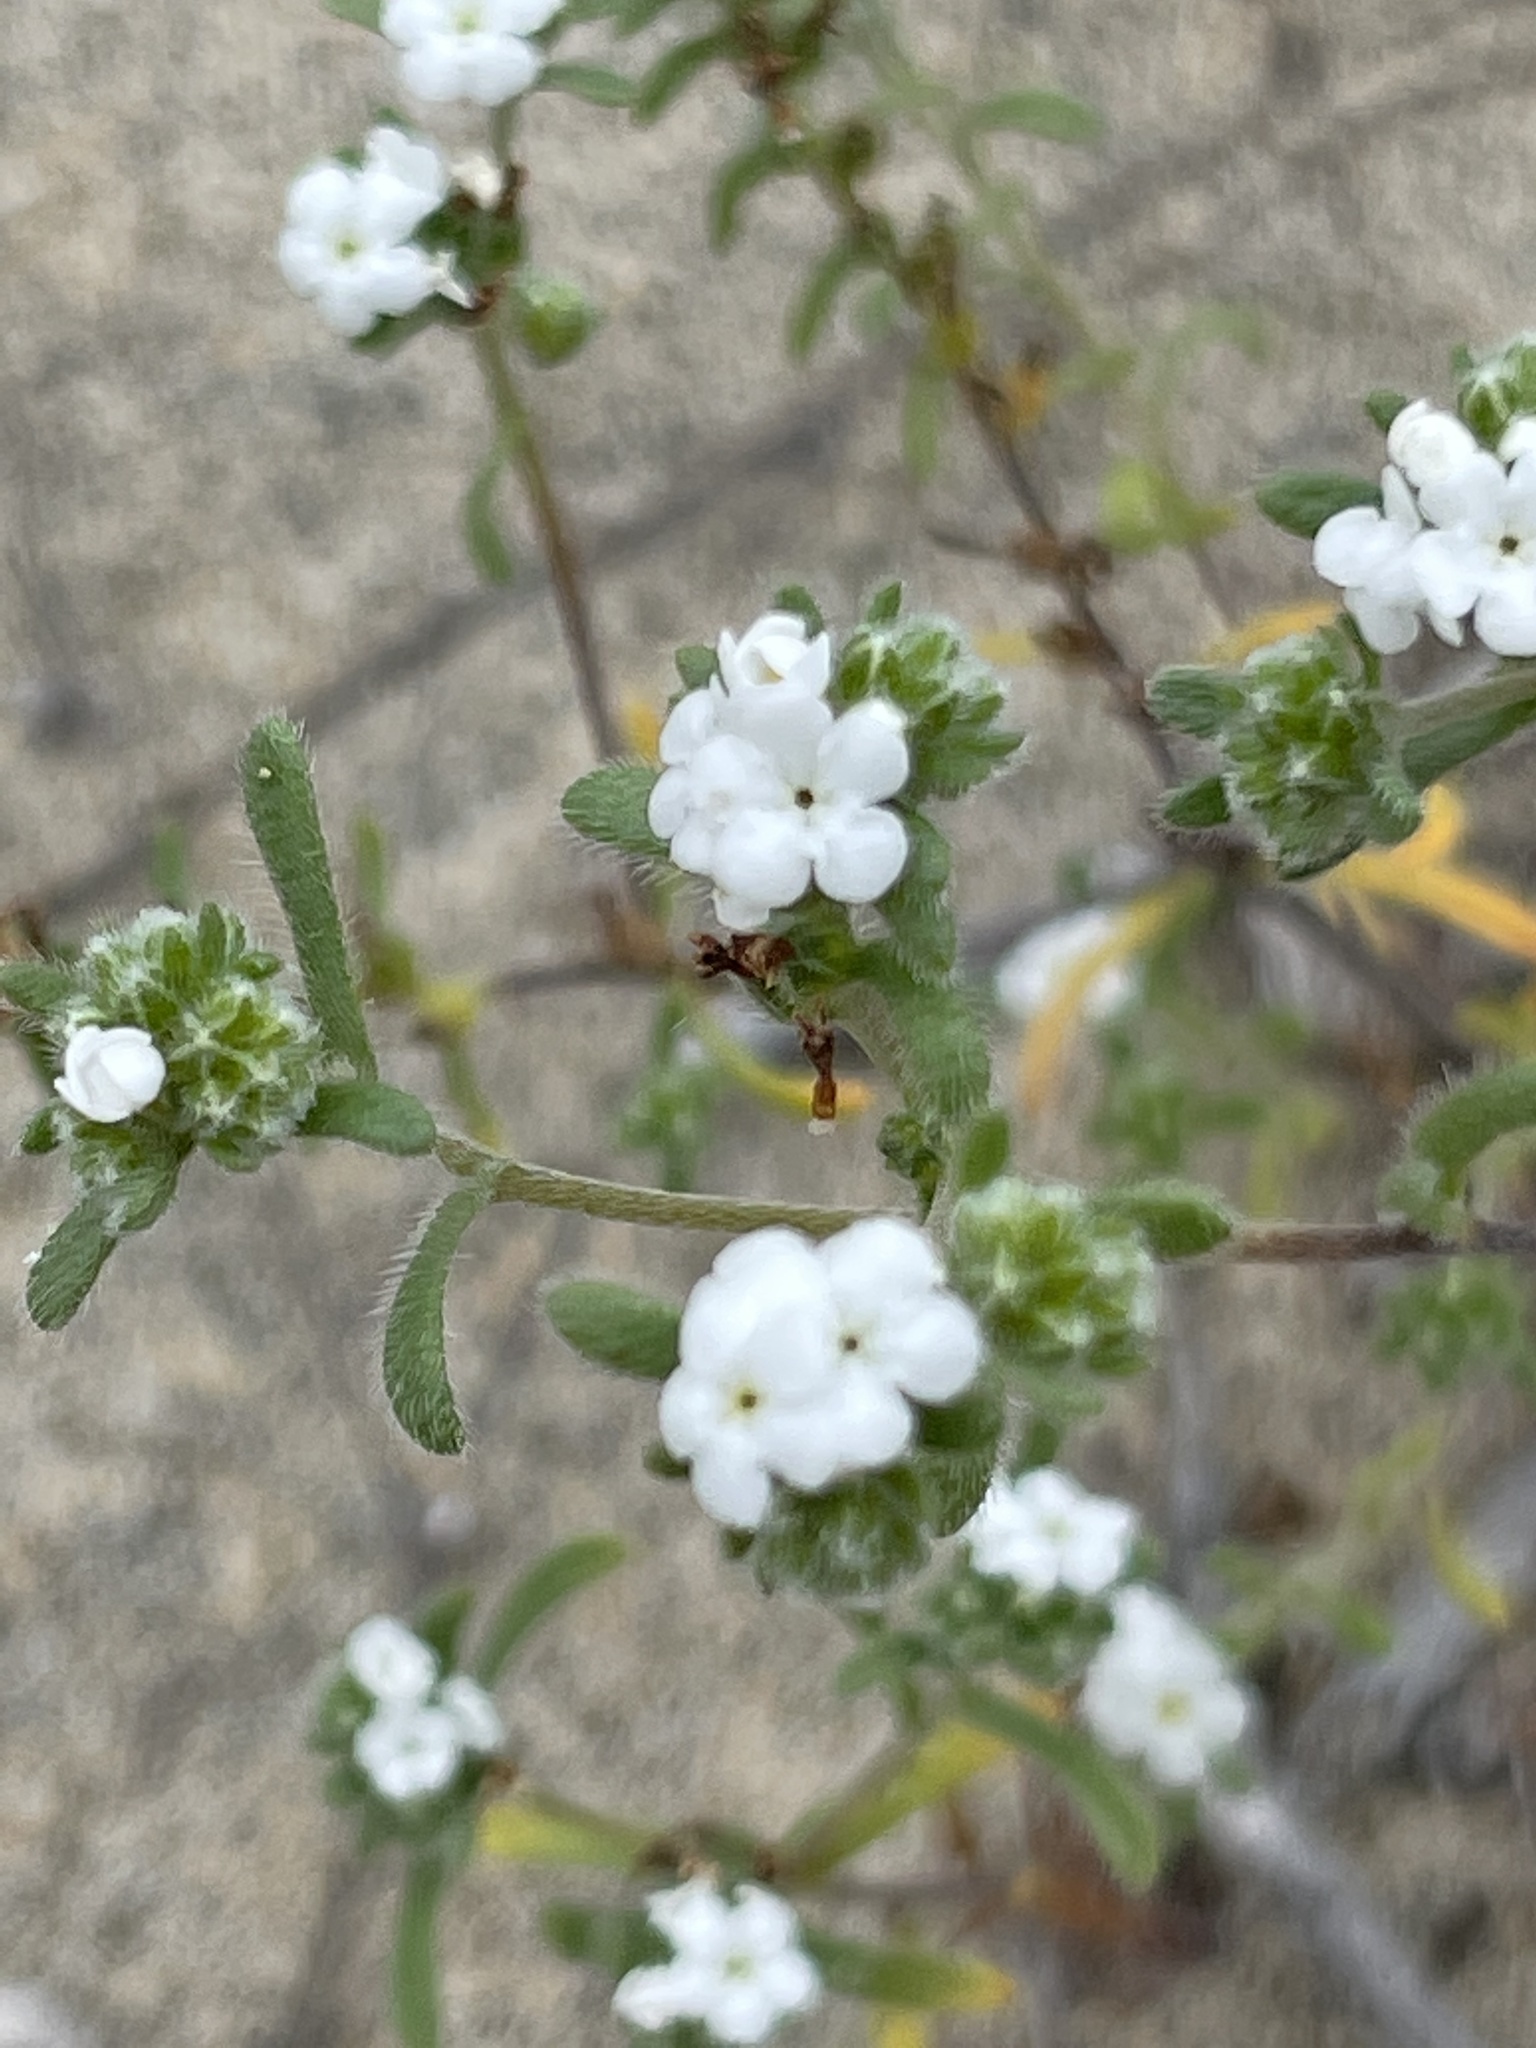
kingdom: Plantae
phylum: Tracheophyta
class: Magnoliopsida
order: Boraginales
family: Boraginaceae
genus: Eremocarya
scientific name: Eremocarya micrantha
